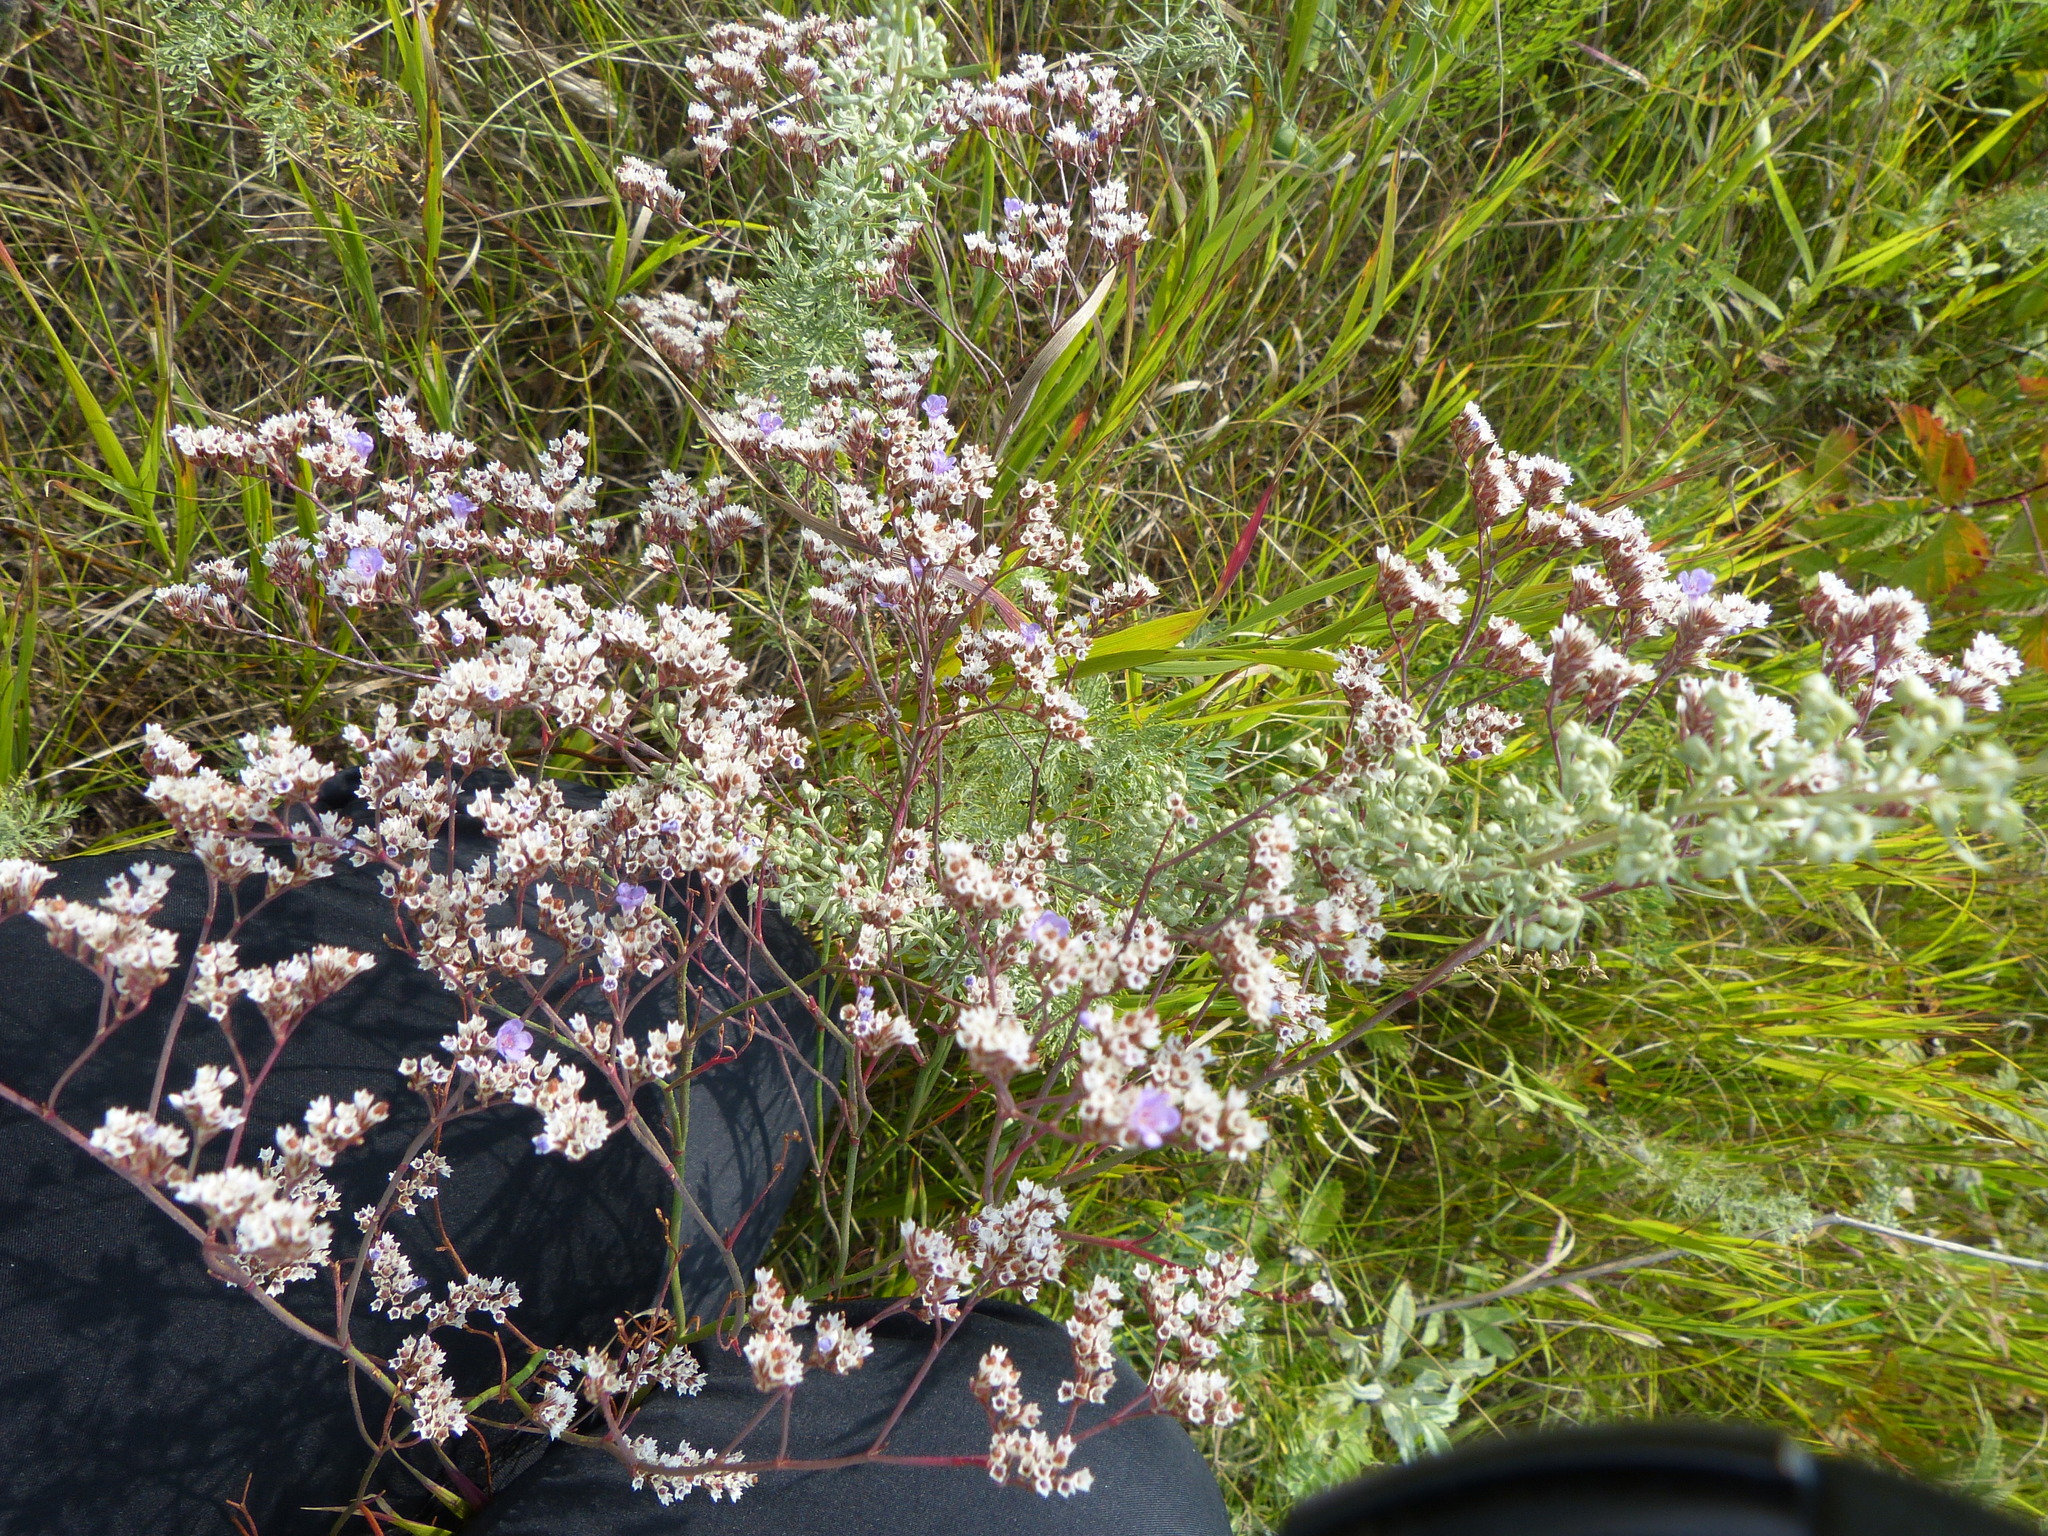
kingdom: Plantae
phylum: Tracheophyta
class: Magnoliopsida
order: Caryophyllales
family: Plumbaginaceae
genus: Limonium
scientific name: Limonium gmelini
